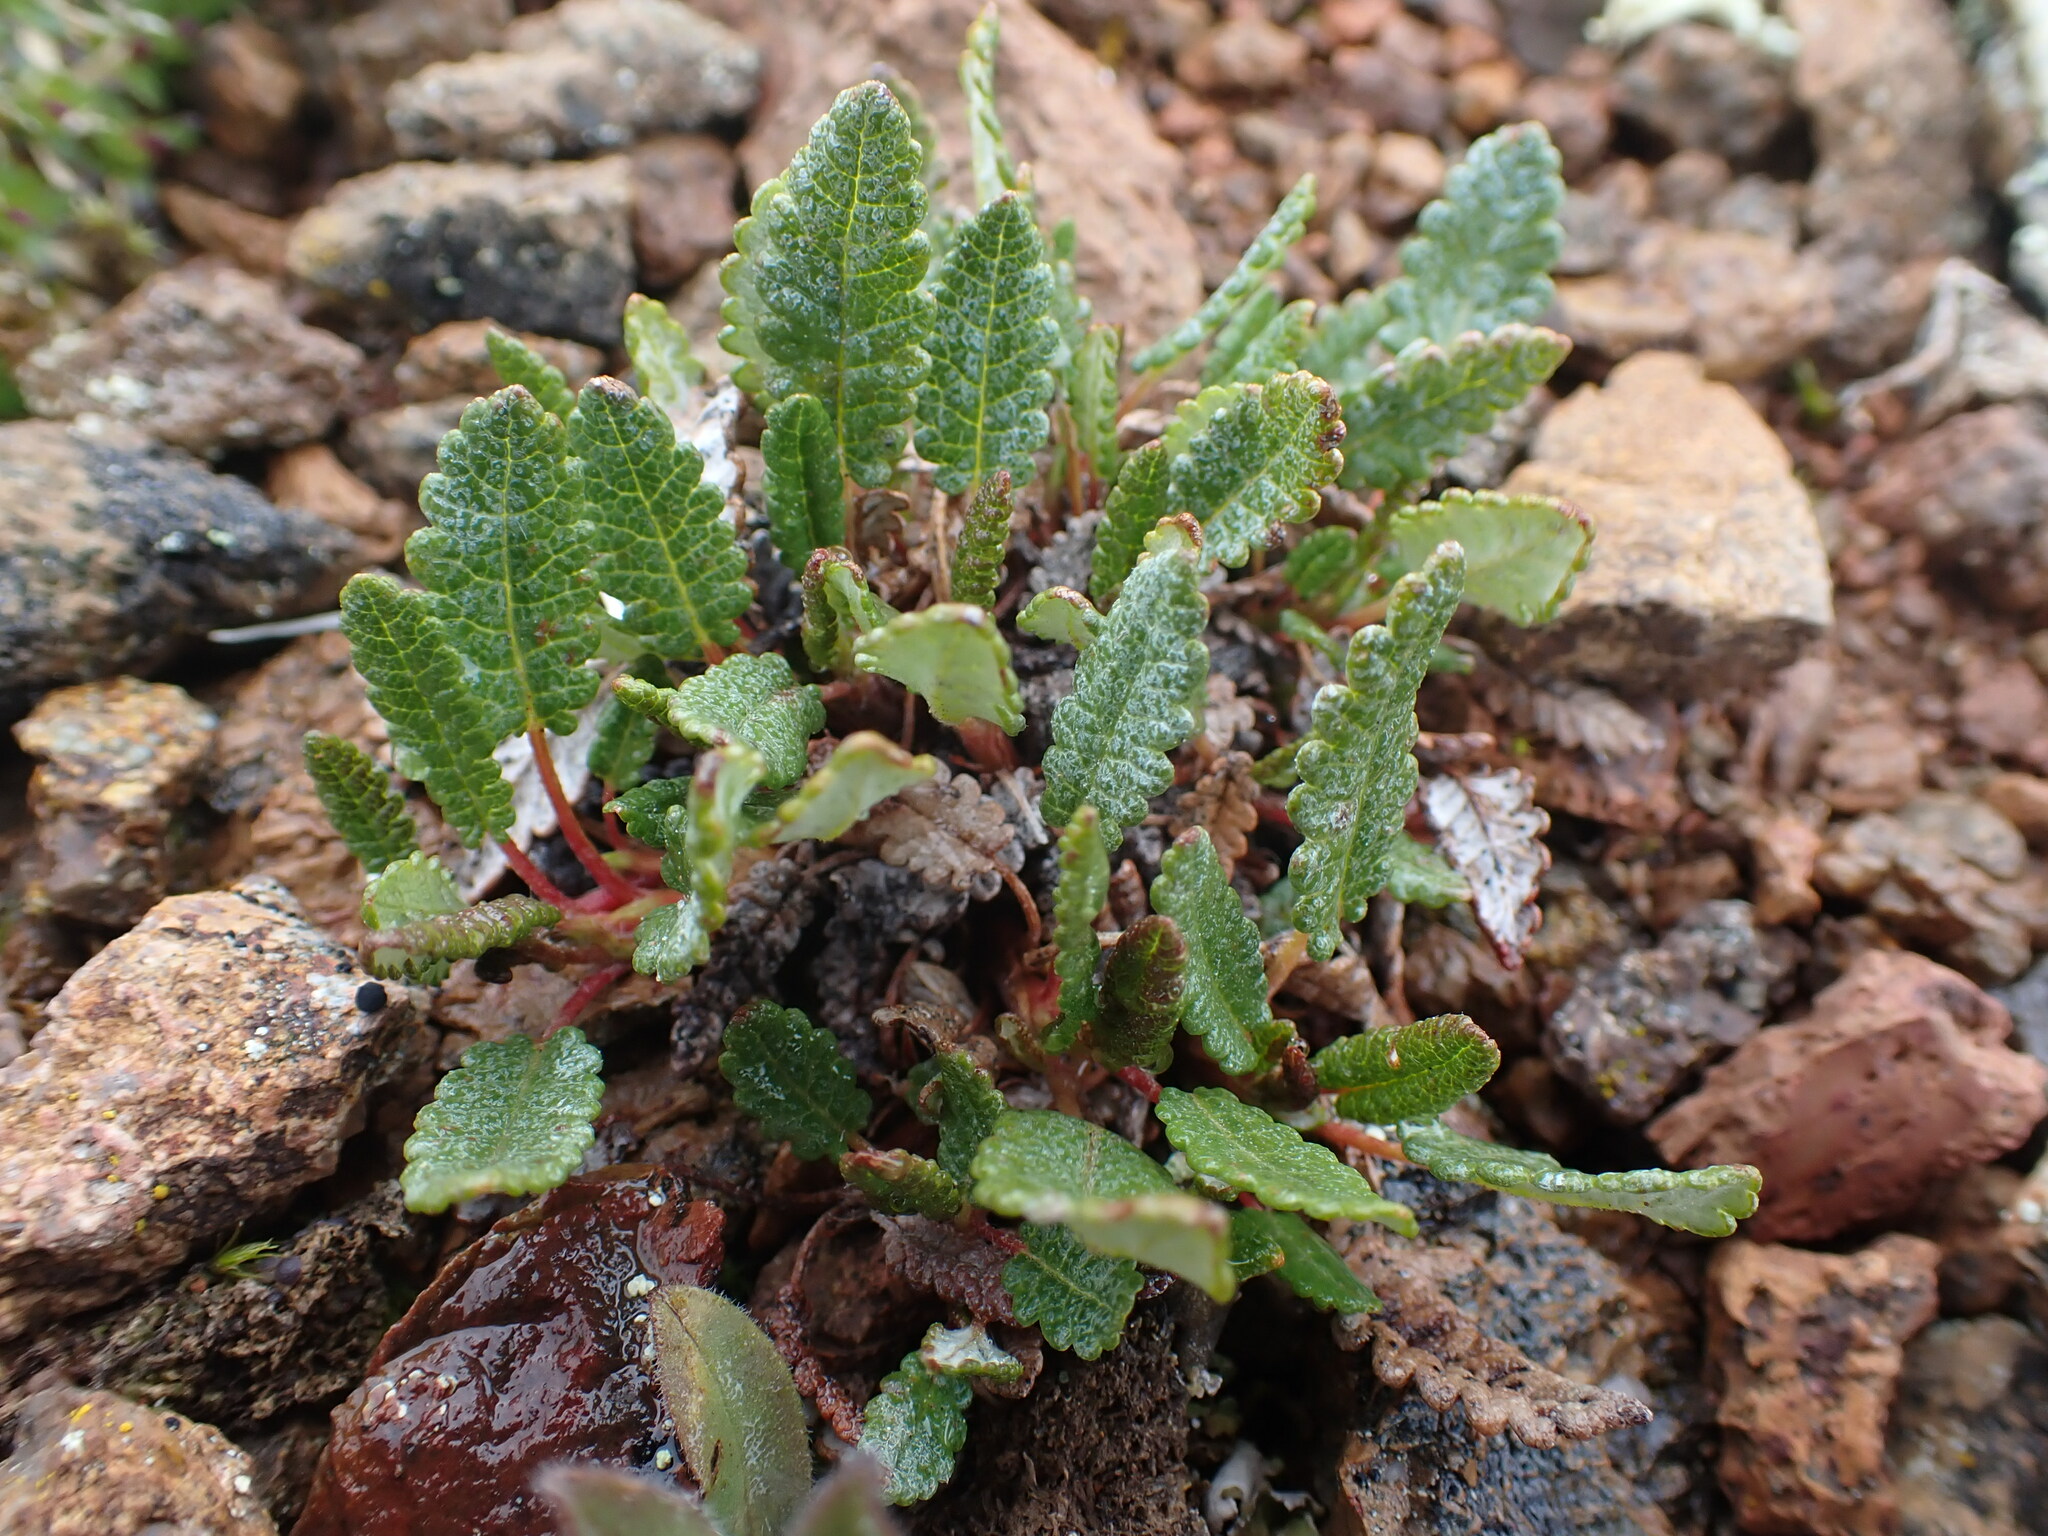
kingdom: Plantae
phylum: Tracheophyta
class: Magnoliopsida
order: Rosales
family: Rosaceae
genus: Dryas
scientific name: Dryas octopetala
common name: Eight-petal mountain-avens
